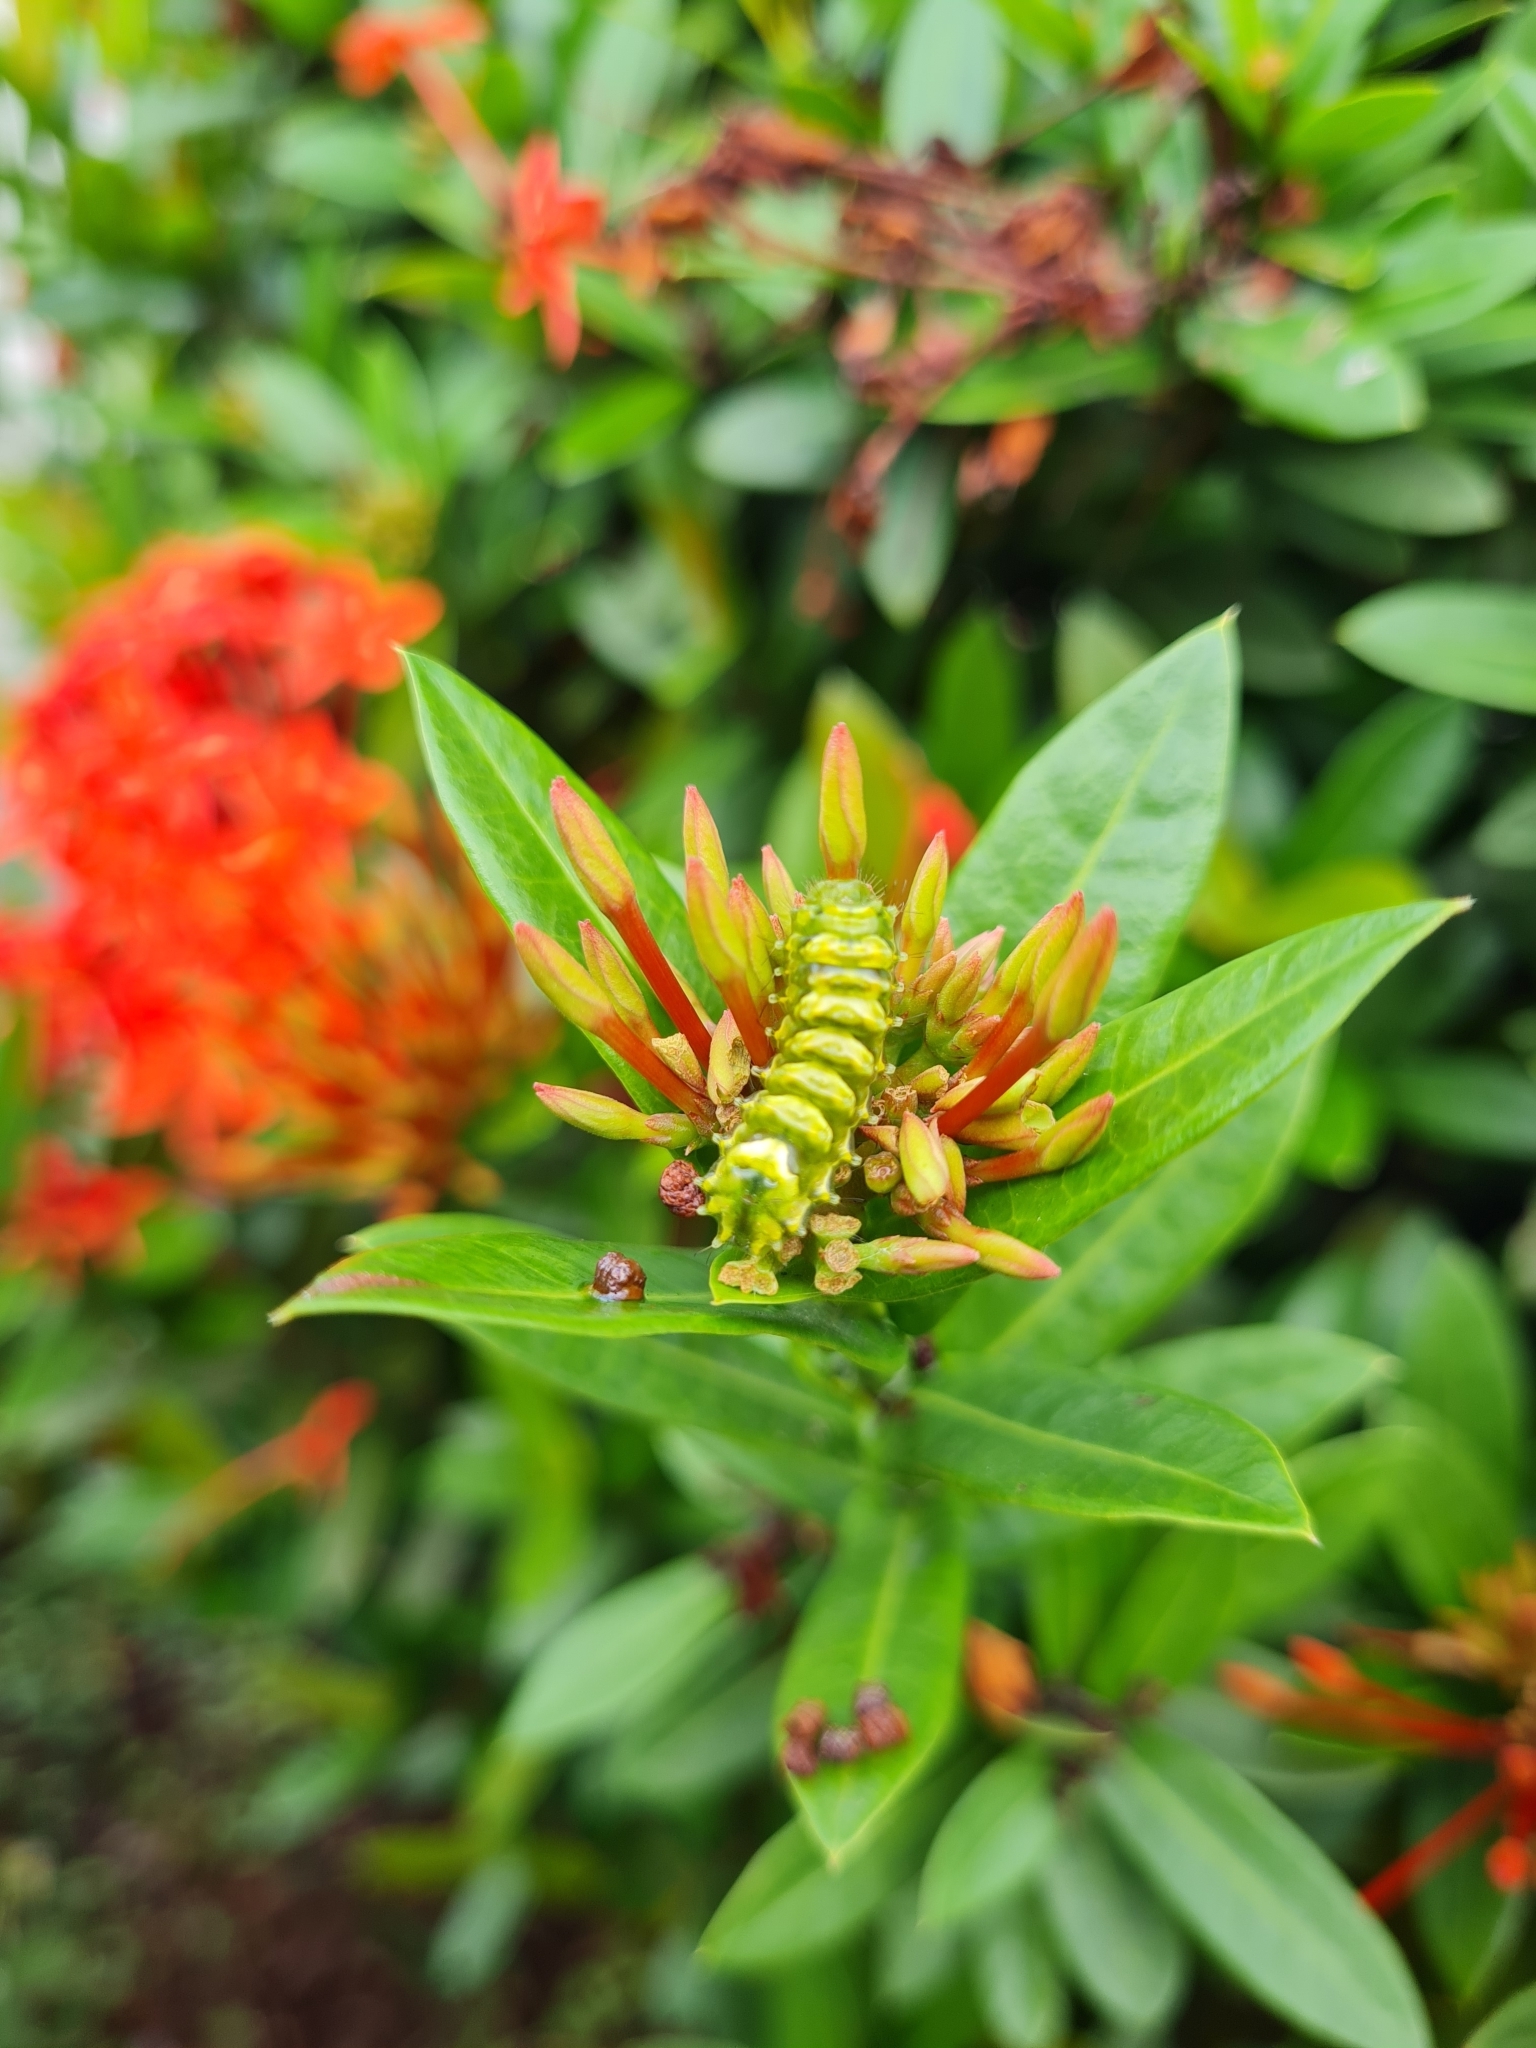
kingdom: Animalia
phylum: Arthropoda
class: Insecta
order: Lepidoptera
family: Lycaenidae
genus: Thecla
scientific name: Thecla marius
